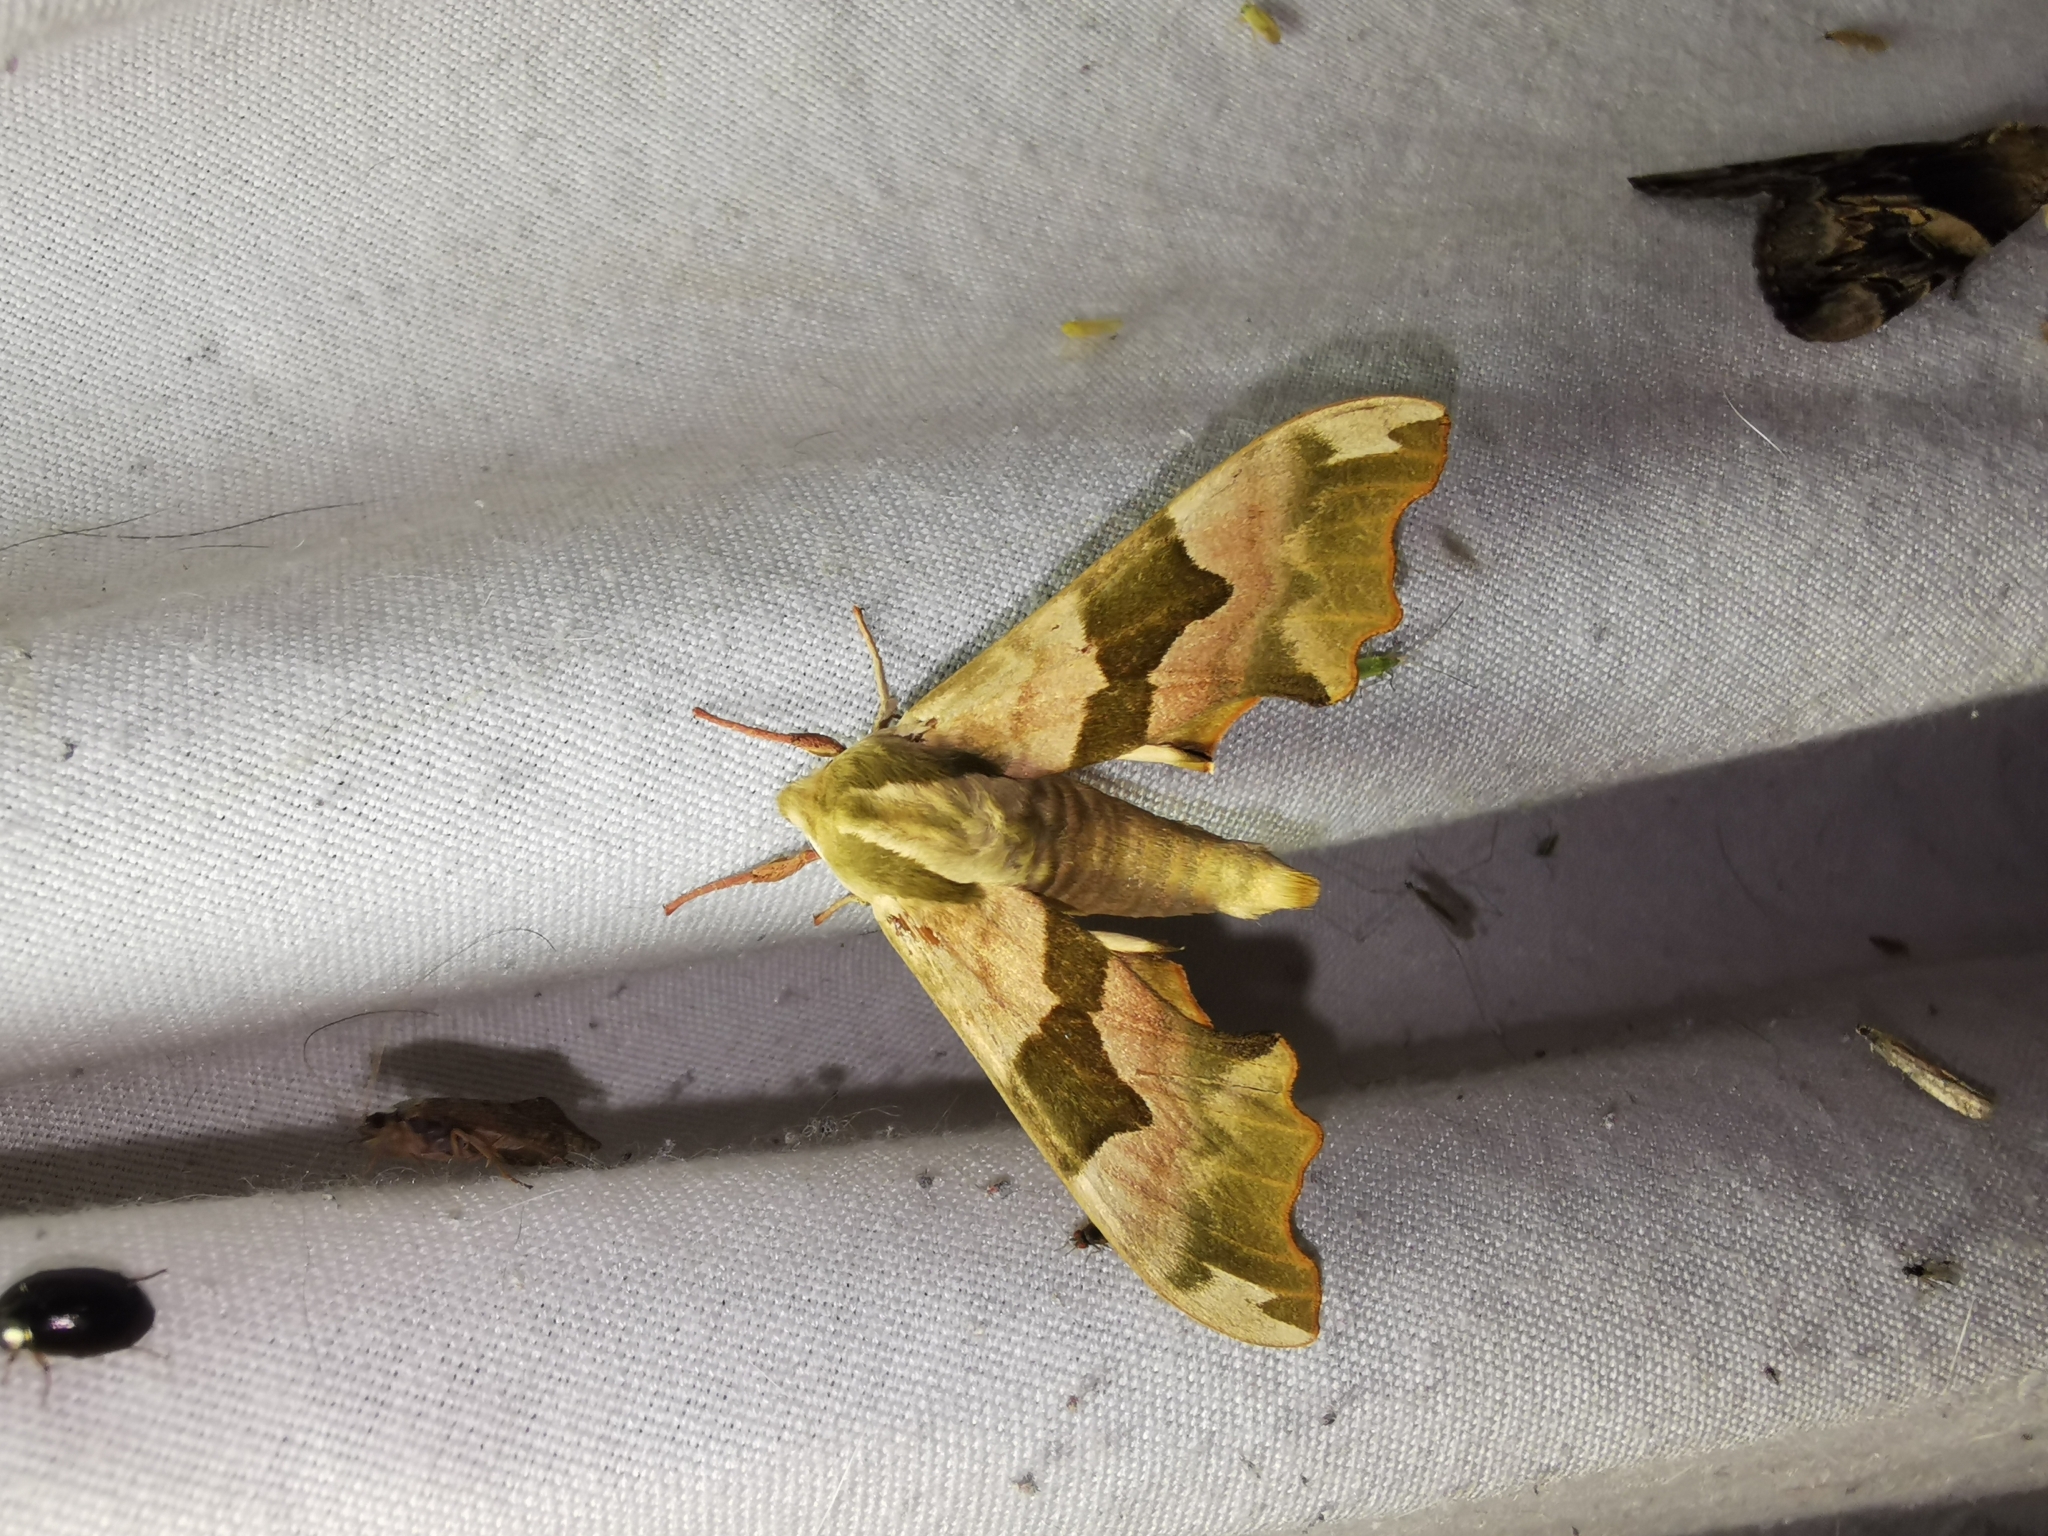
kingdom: Animalia
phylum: Arthropoda
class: Insecta
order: Lepidoptera
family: Sphingidae
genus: Mimas
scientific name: Mimas tiliae
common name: Lime hawk-moth
